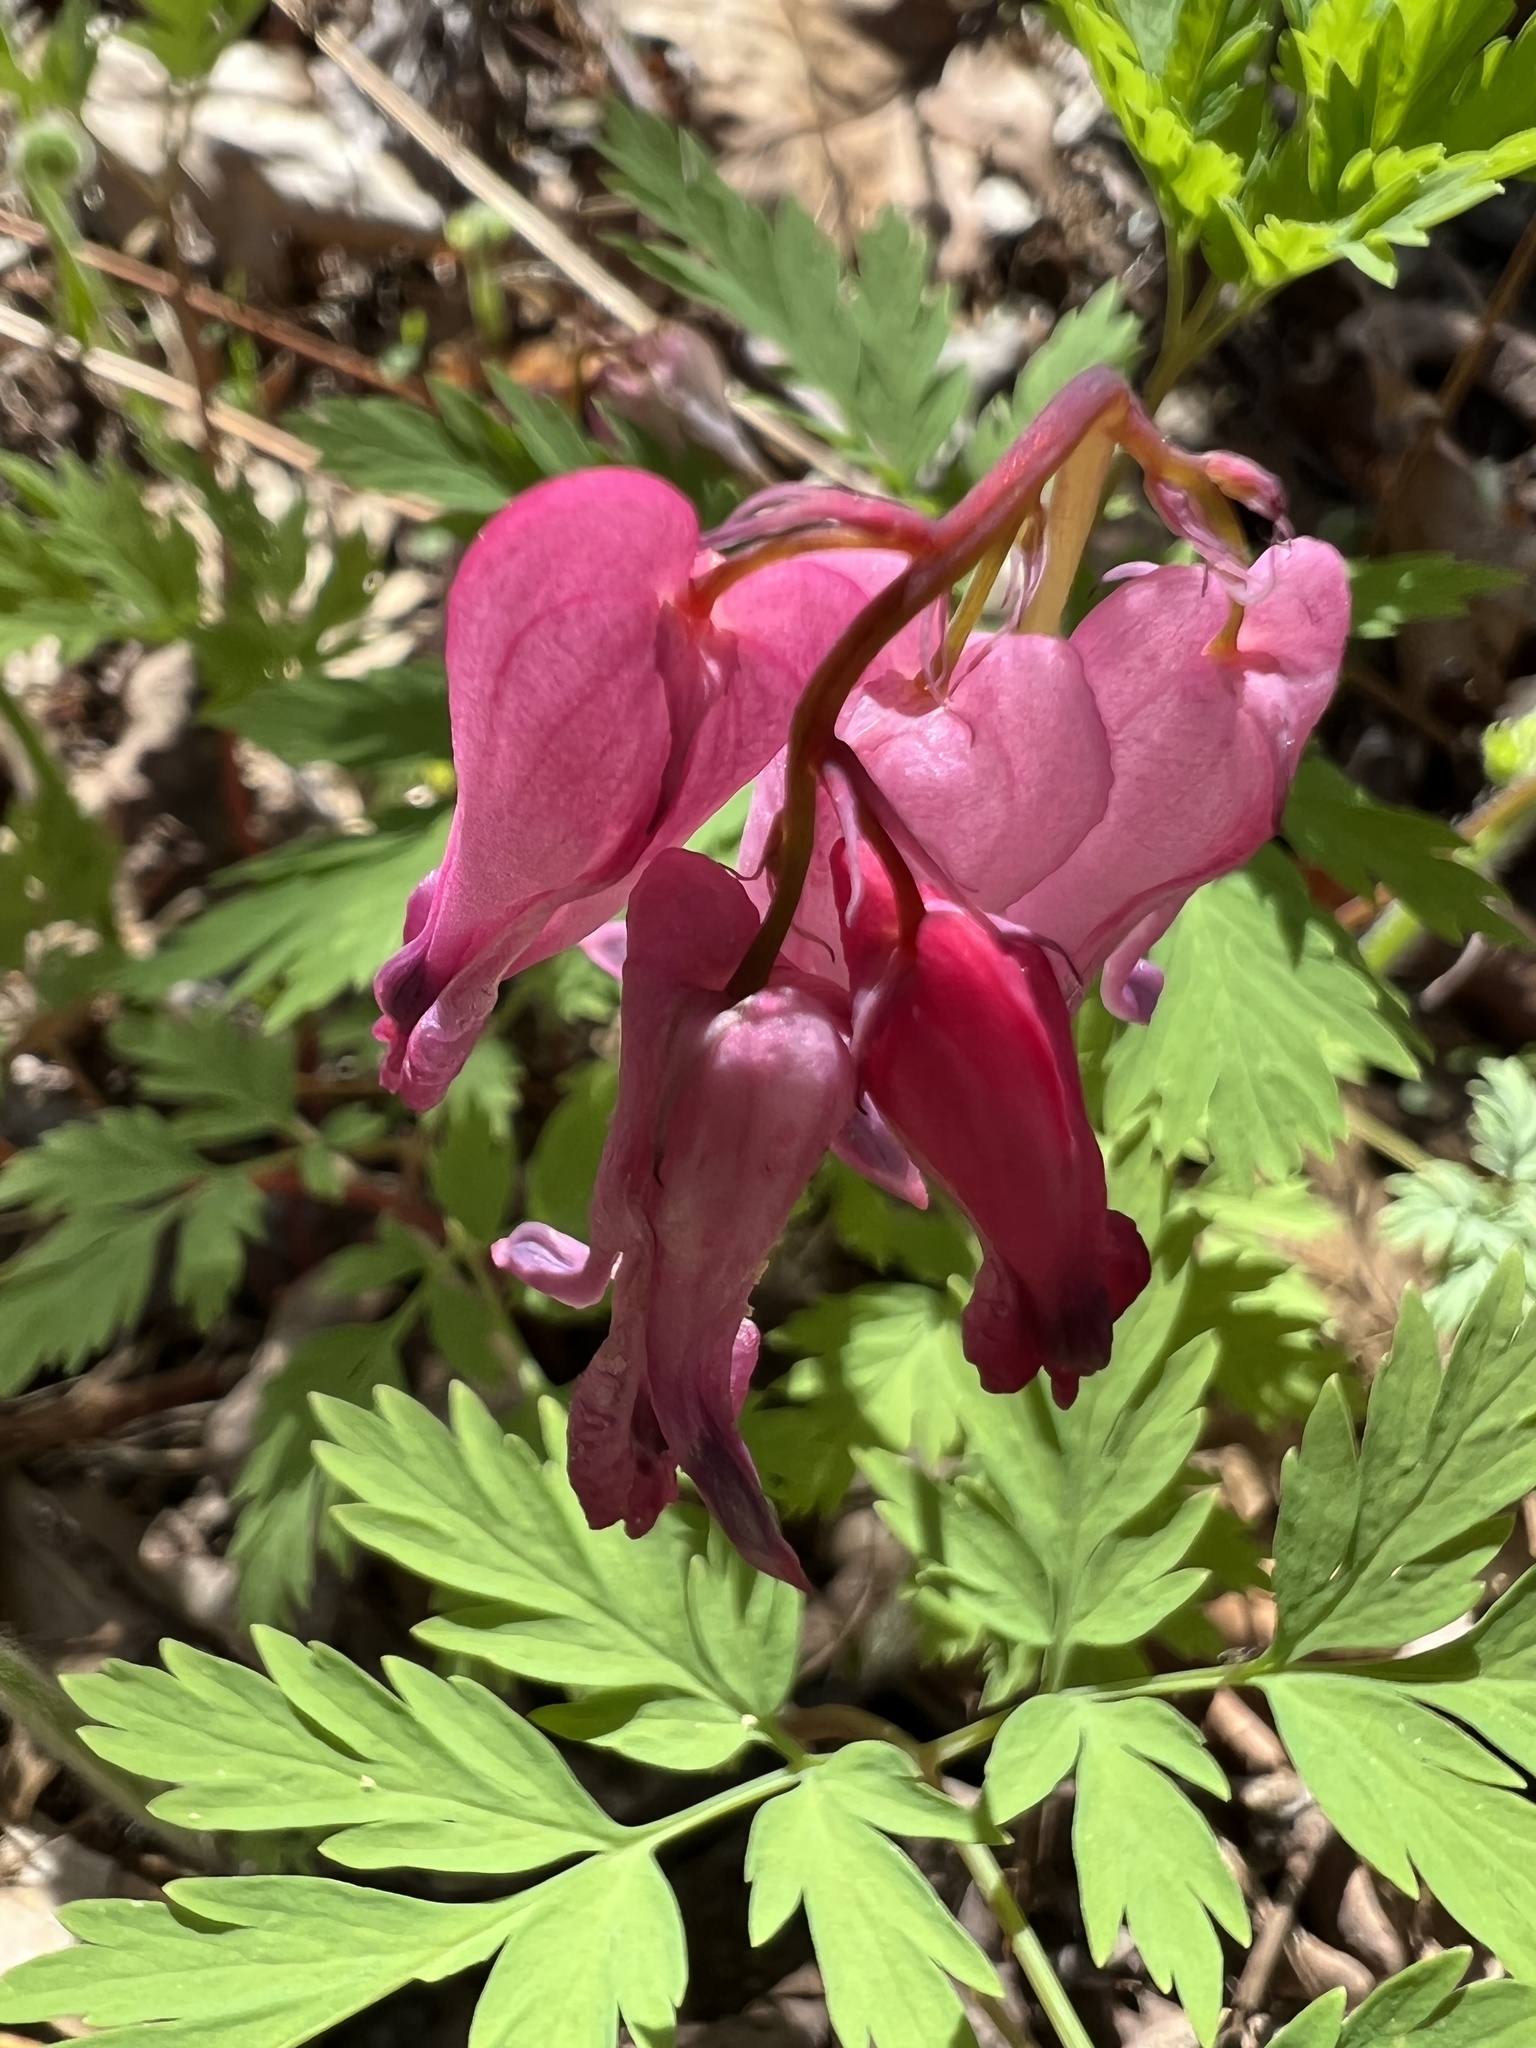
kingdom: Plantae
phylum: Tracheophyta
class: Magnoliopsida
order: Ranunculales
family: Papaveraceae
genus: Dicentra
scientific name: Dicentra eximia
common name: Turkey-corn
